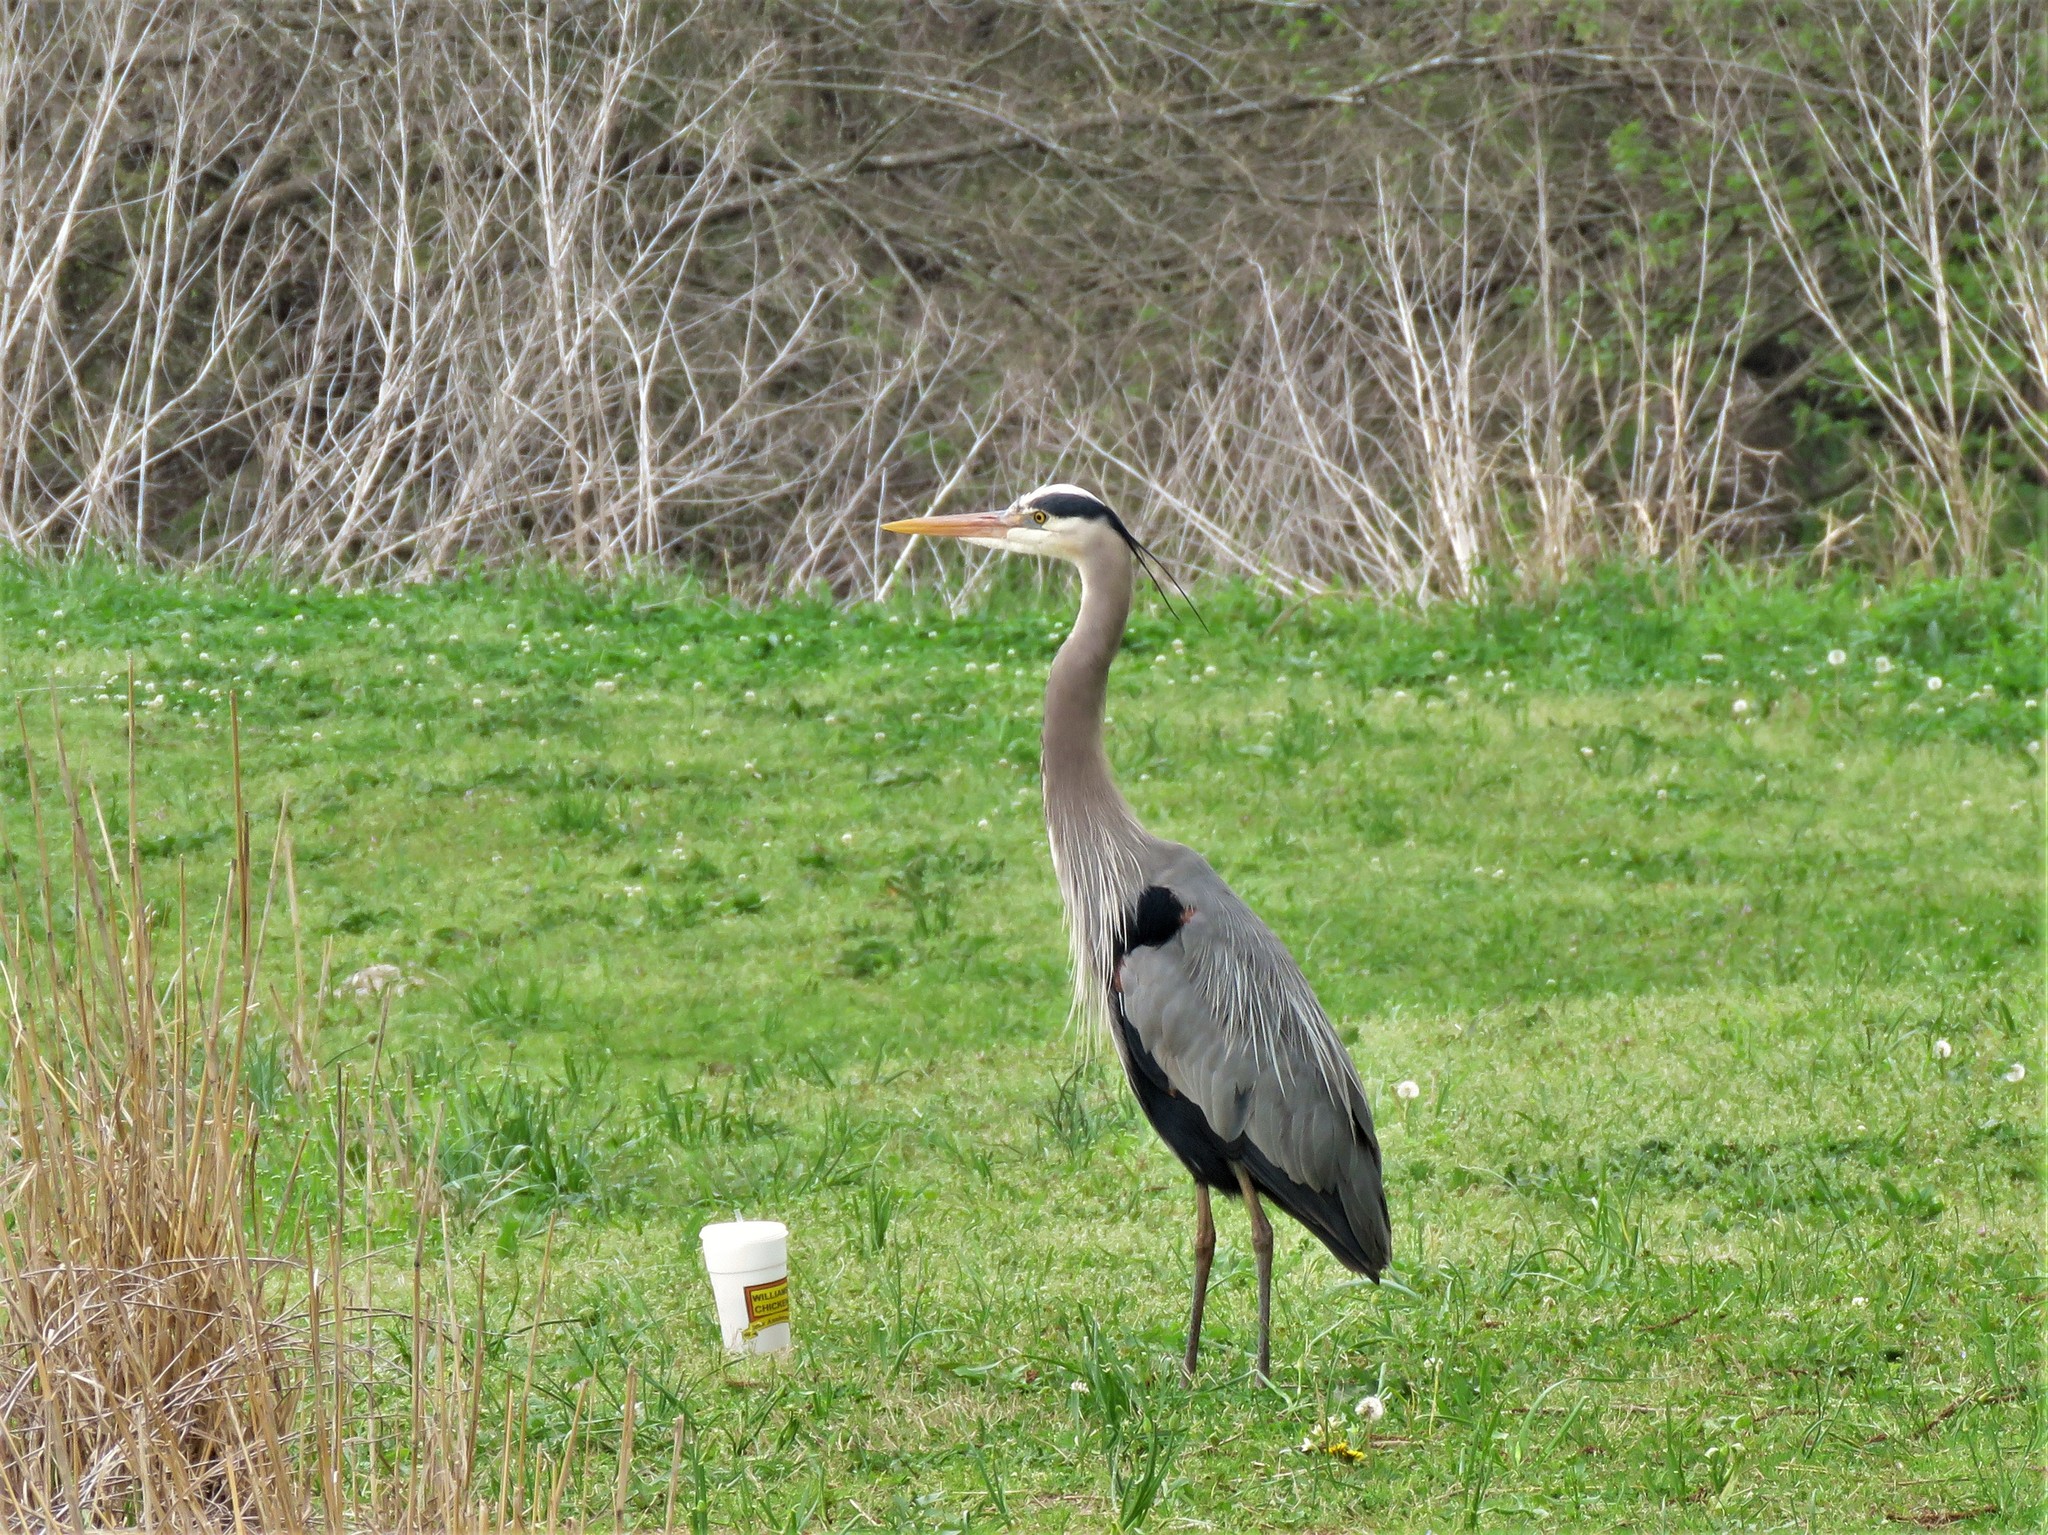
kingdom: Animalia
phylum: Chordata
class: Aves
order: Pelecaniformes
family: Ardeidae
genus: Ardea
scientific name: Ardea herodias
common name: Great blue heron
